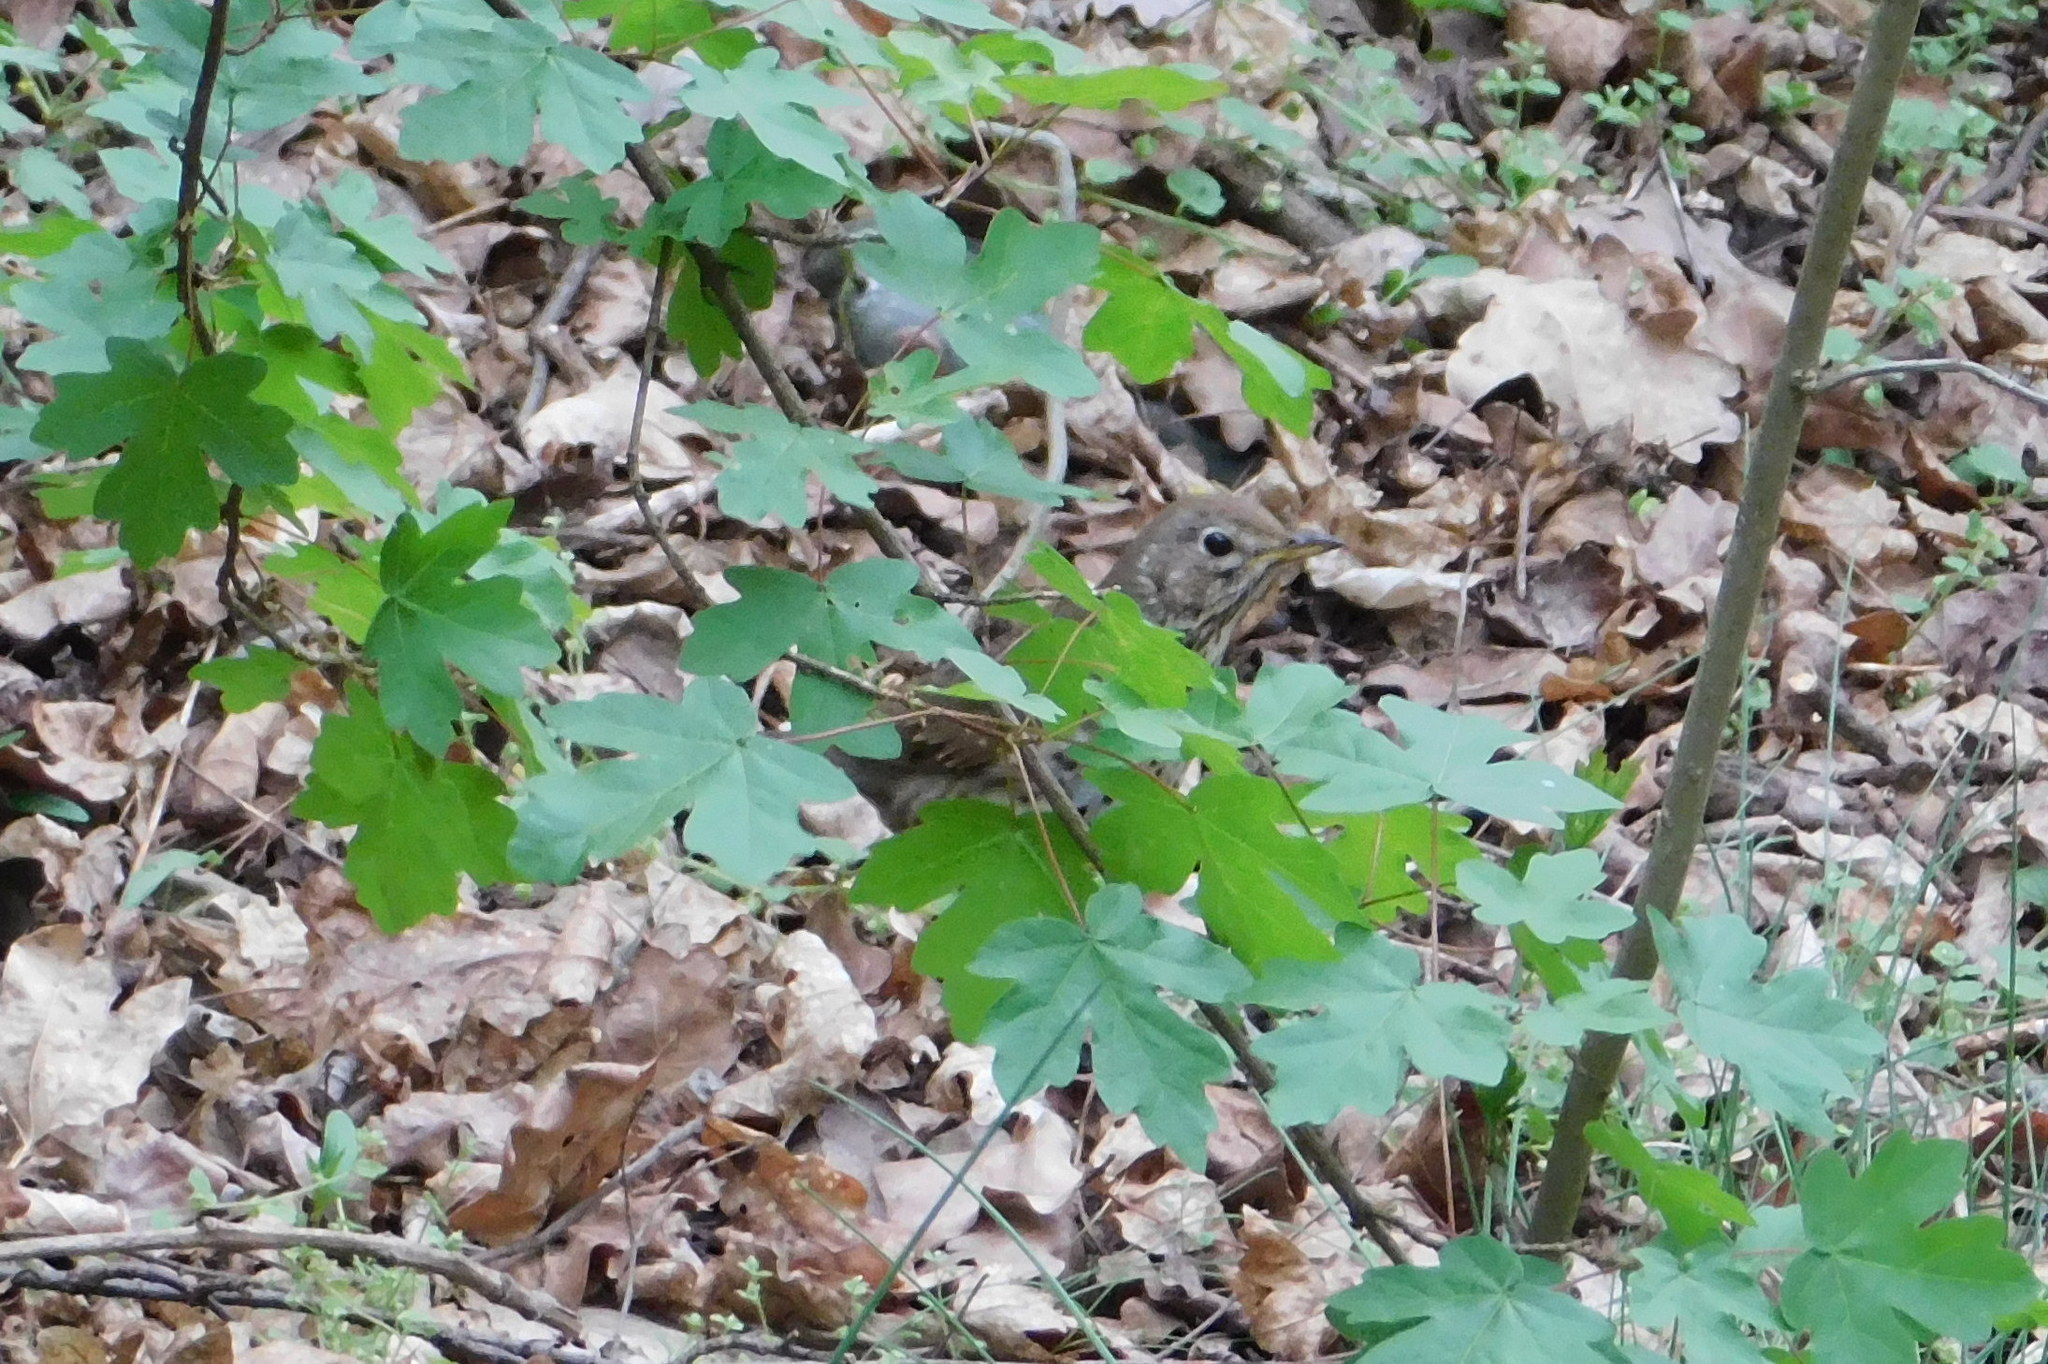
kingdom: Animalia
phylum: Chordata
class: Aves
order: Passeriformes
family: Turdidae
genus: Turdus
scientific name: Turdus philomelos
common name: Song thrush
